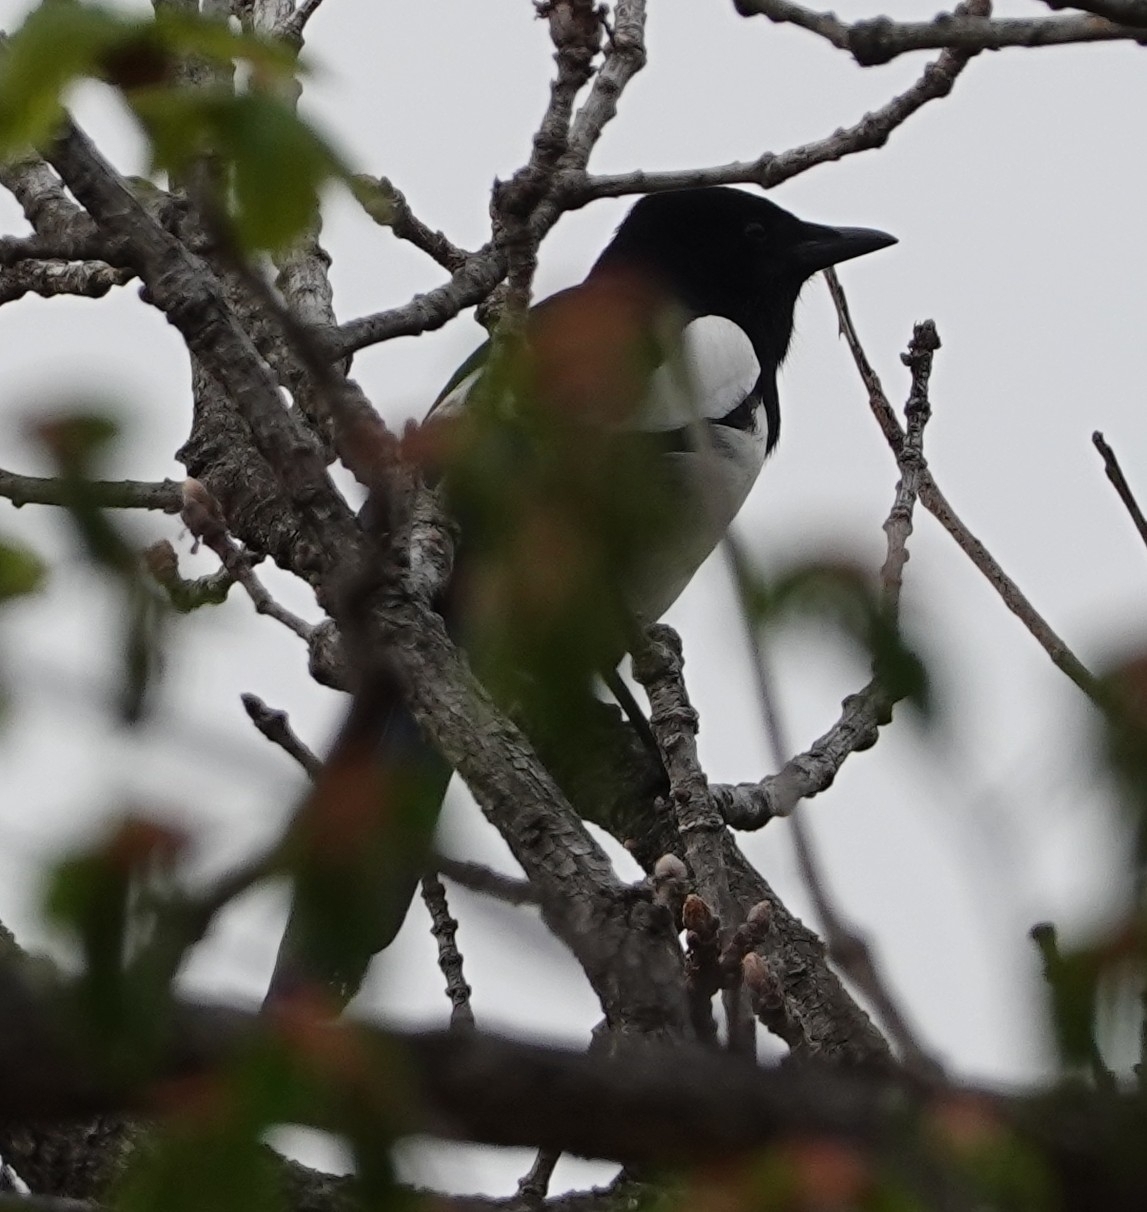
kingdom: Animalia
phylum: Chordata
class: Aves
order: Passeriformes
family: Corvidae
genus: Pica
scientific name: Pica serica
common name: Oriental magpie
